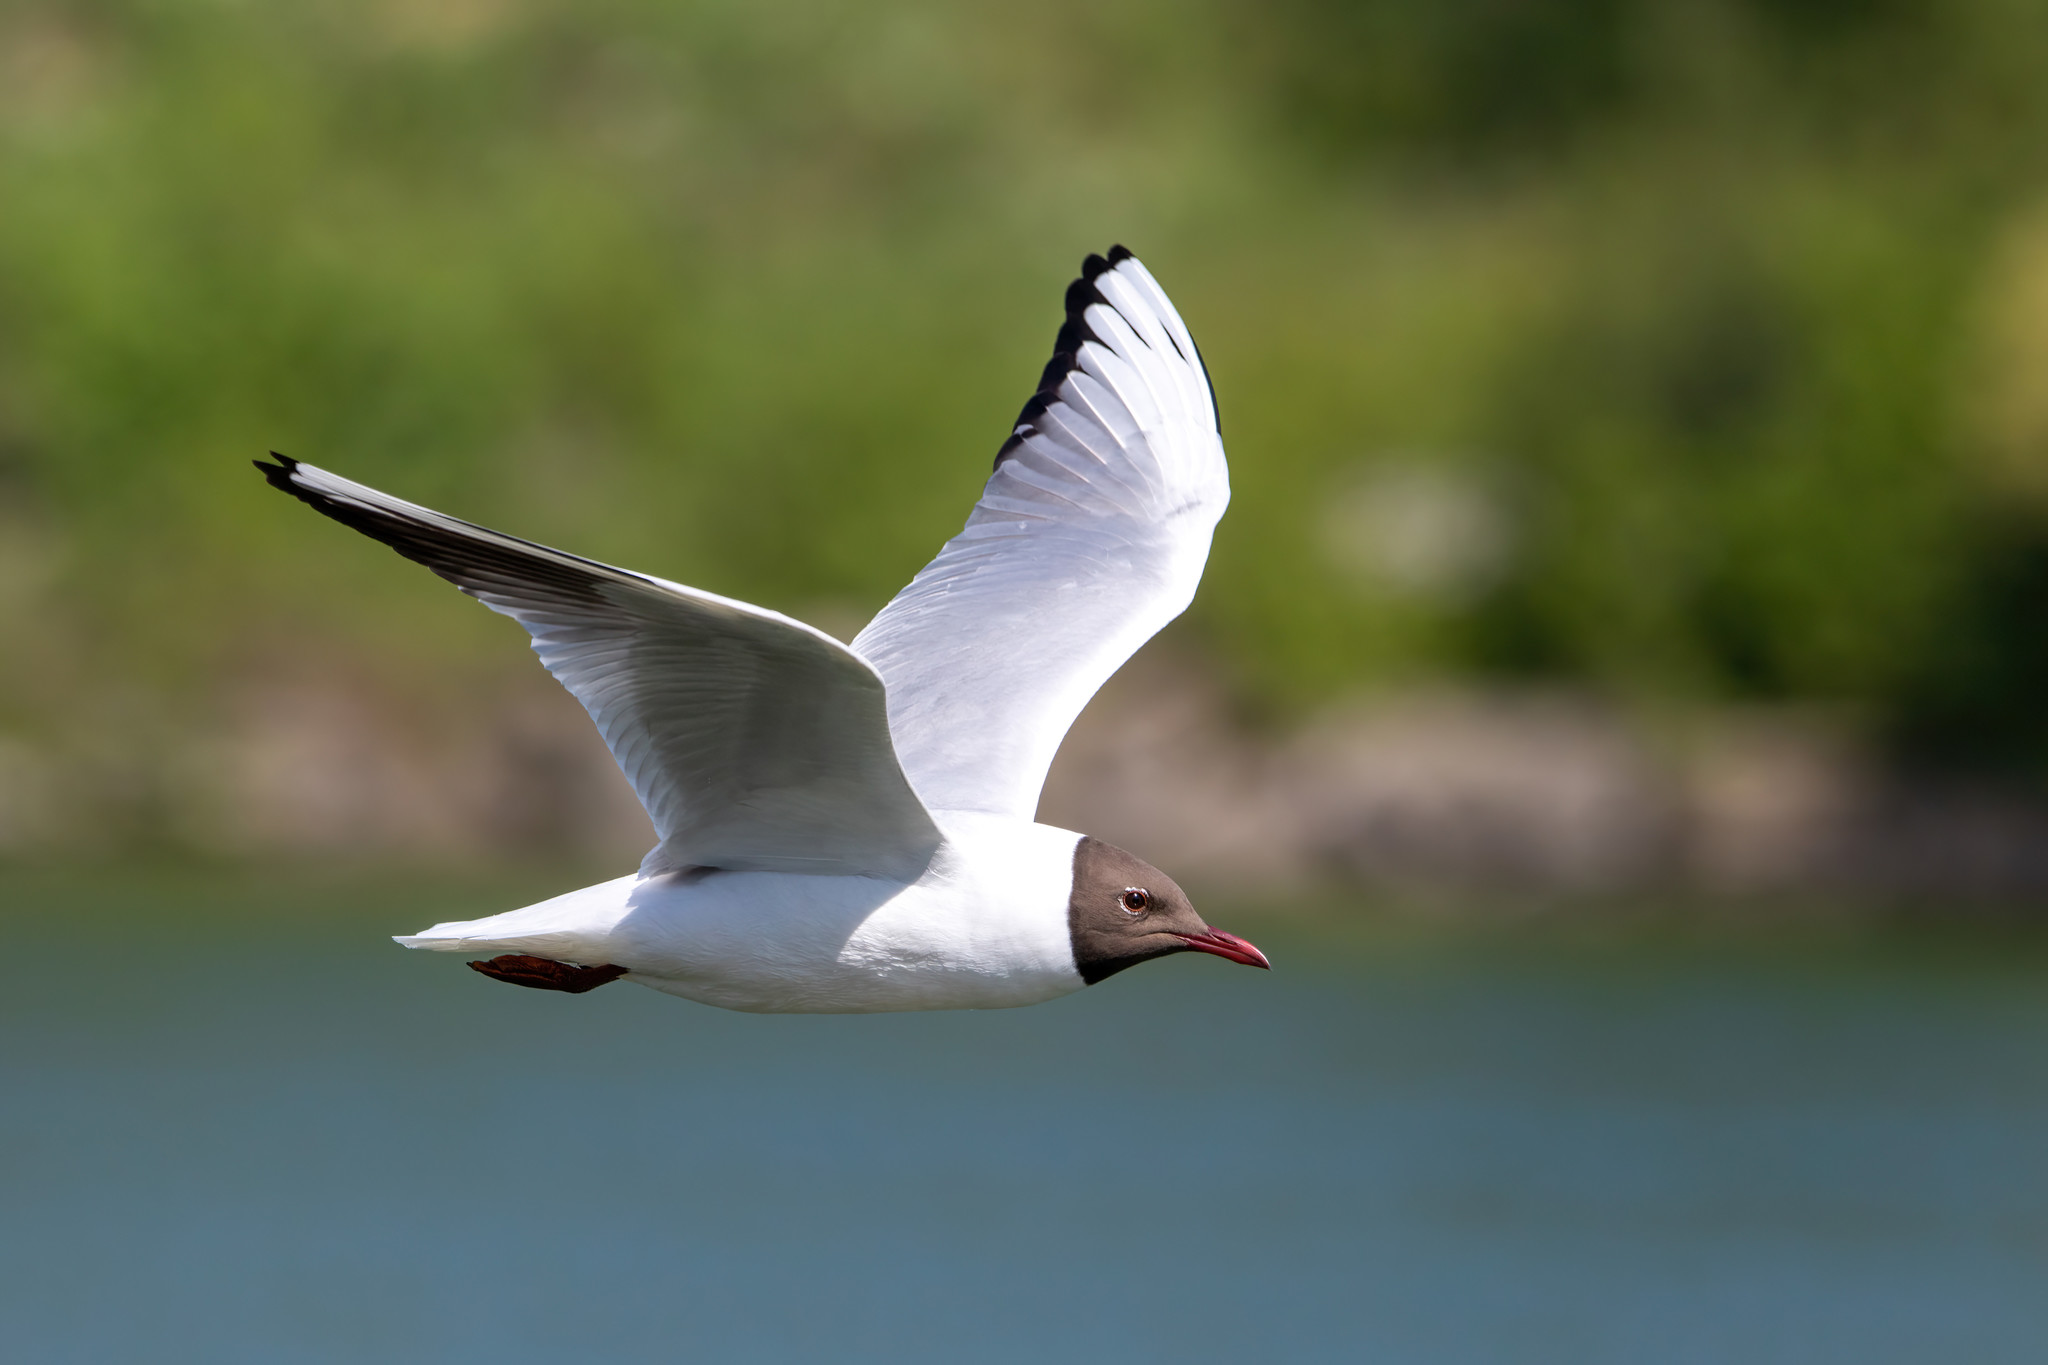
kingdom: Animalia
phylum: Chordata
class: Aves
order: Charadriiformes
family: Laridae
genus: Chroicocephalus
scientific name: Chroicocephalus ridibundus
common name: Black-headed gull
